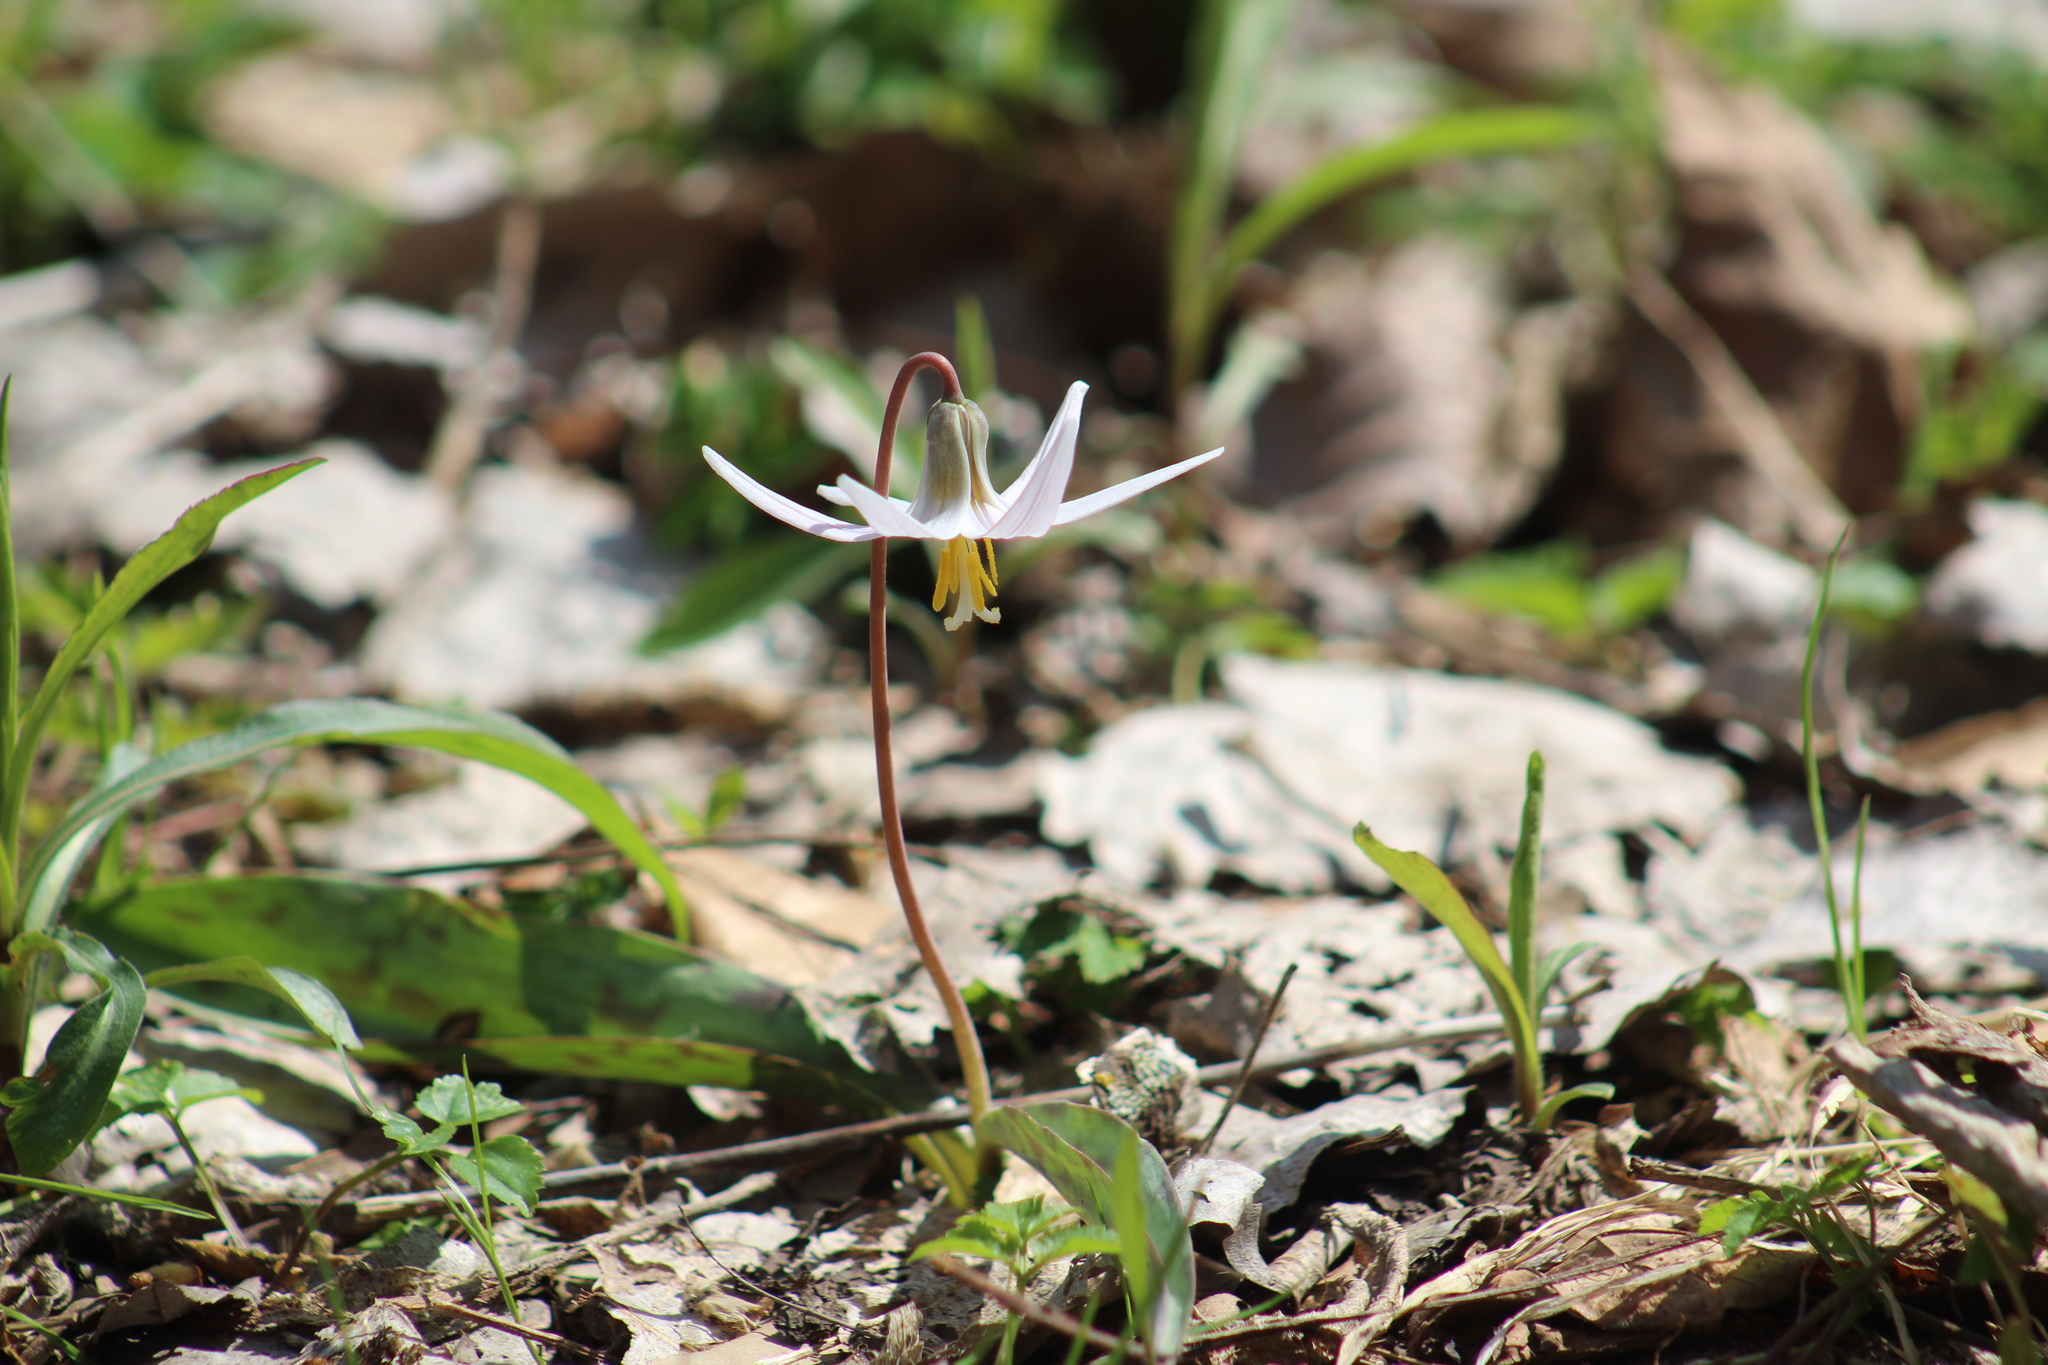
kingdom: Plantae
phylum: Tracheophyta
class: Liliopsida
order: Liliales
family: Liliaceae
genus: Erythronium
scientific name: Erythronium albidum
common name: White trout-lily
